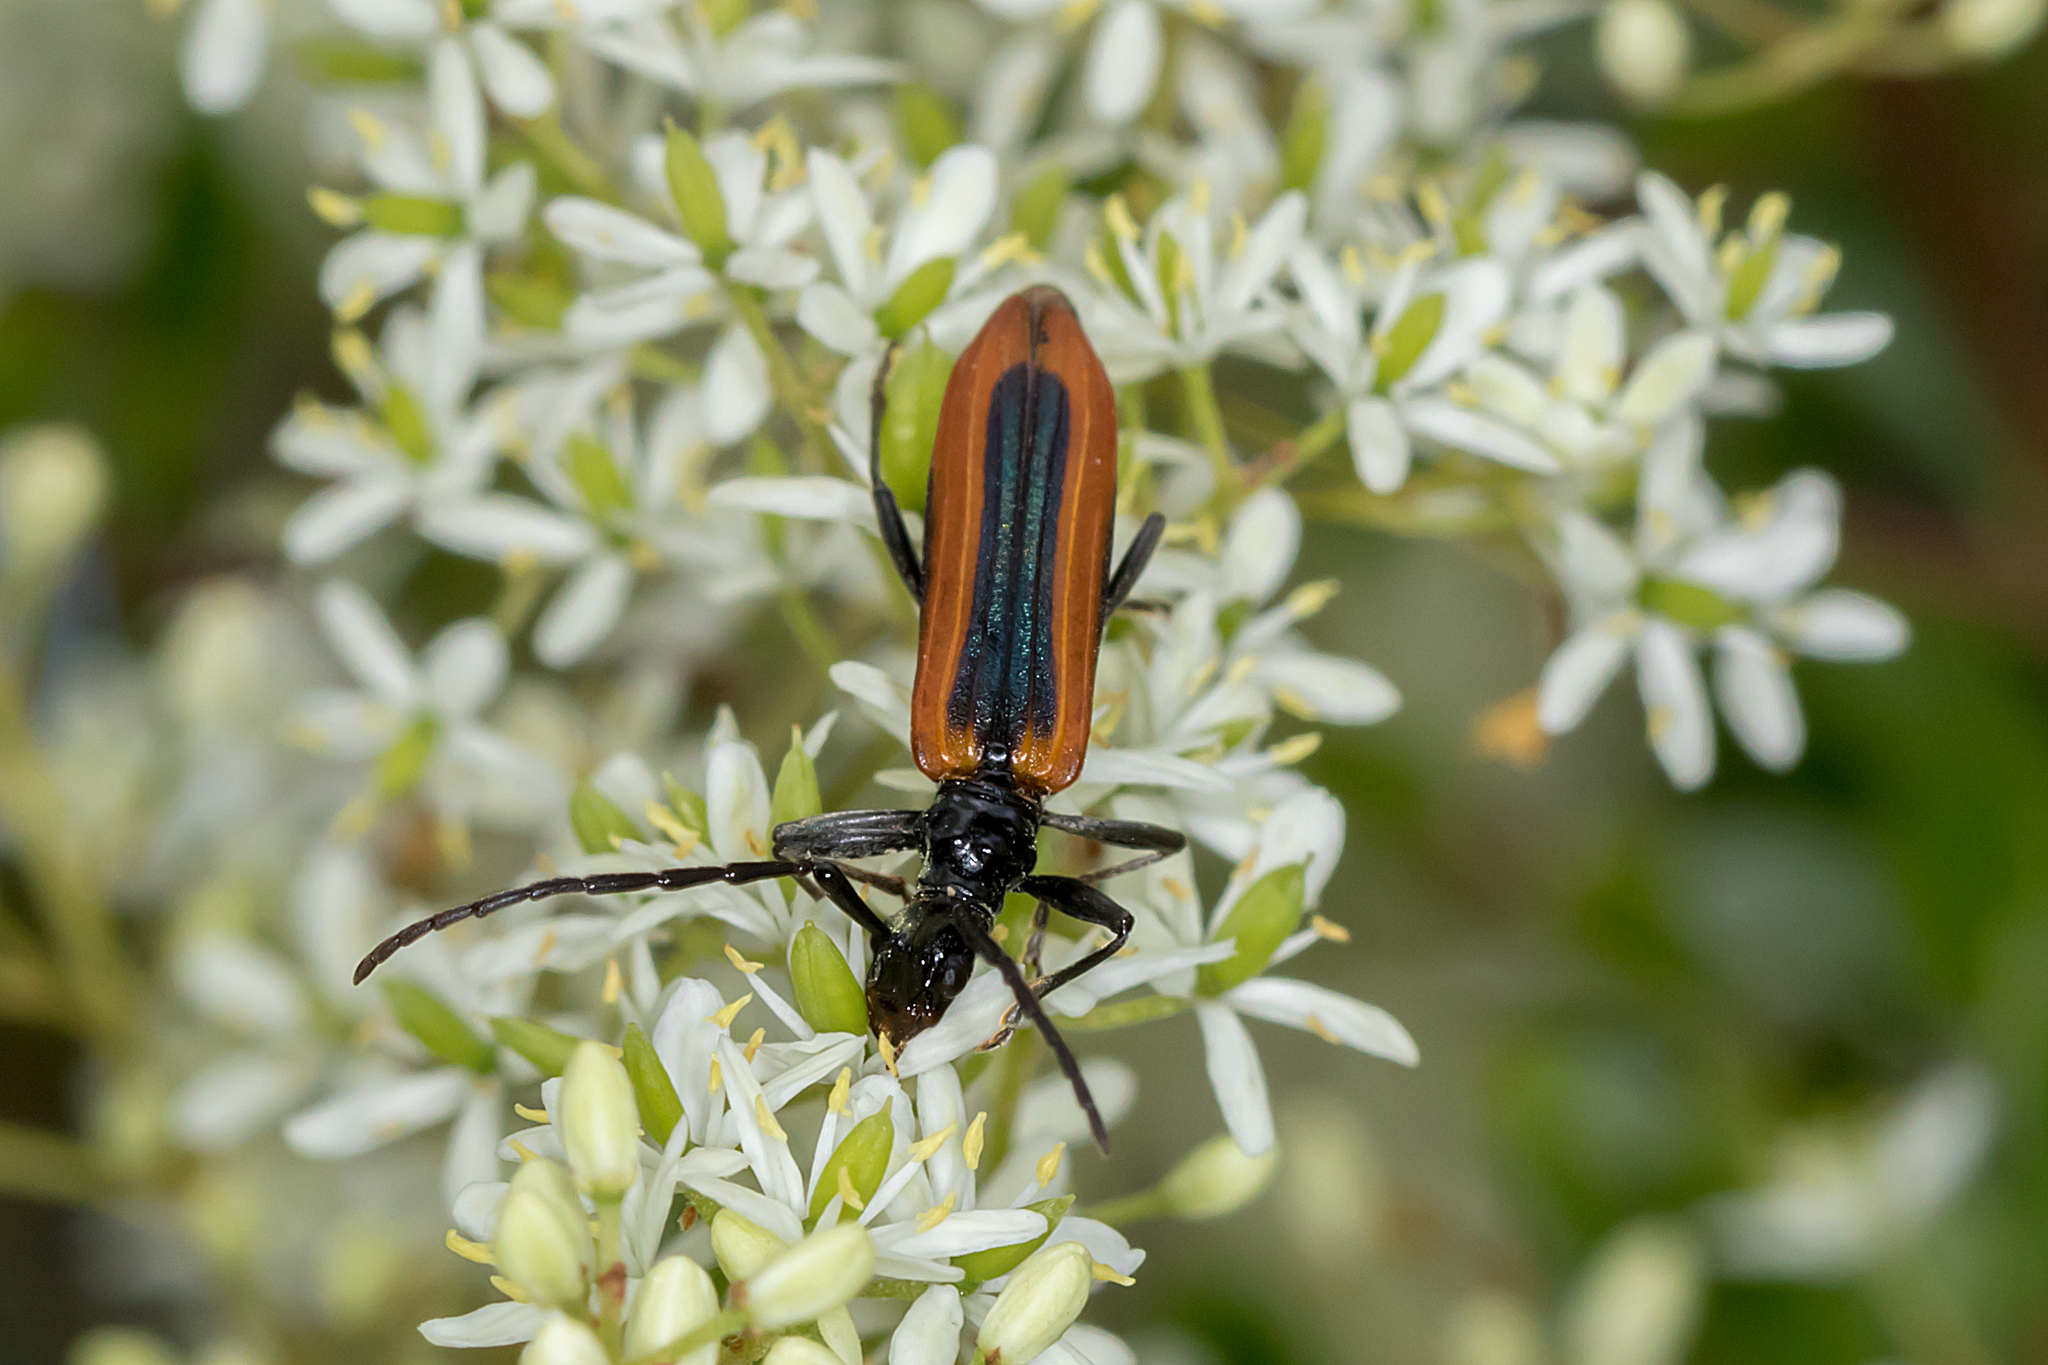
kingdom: Animalia
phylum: Arthropoda
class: Insecta
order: Coleoptera
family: Cerambycidae
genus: Stenoderus
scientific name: Stenoderus suturalis
